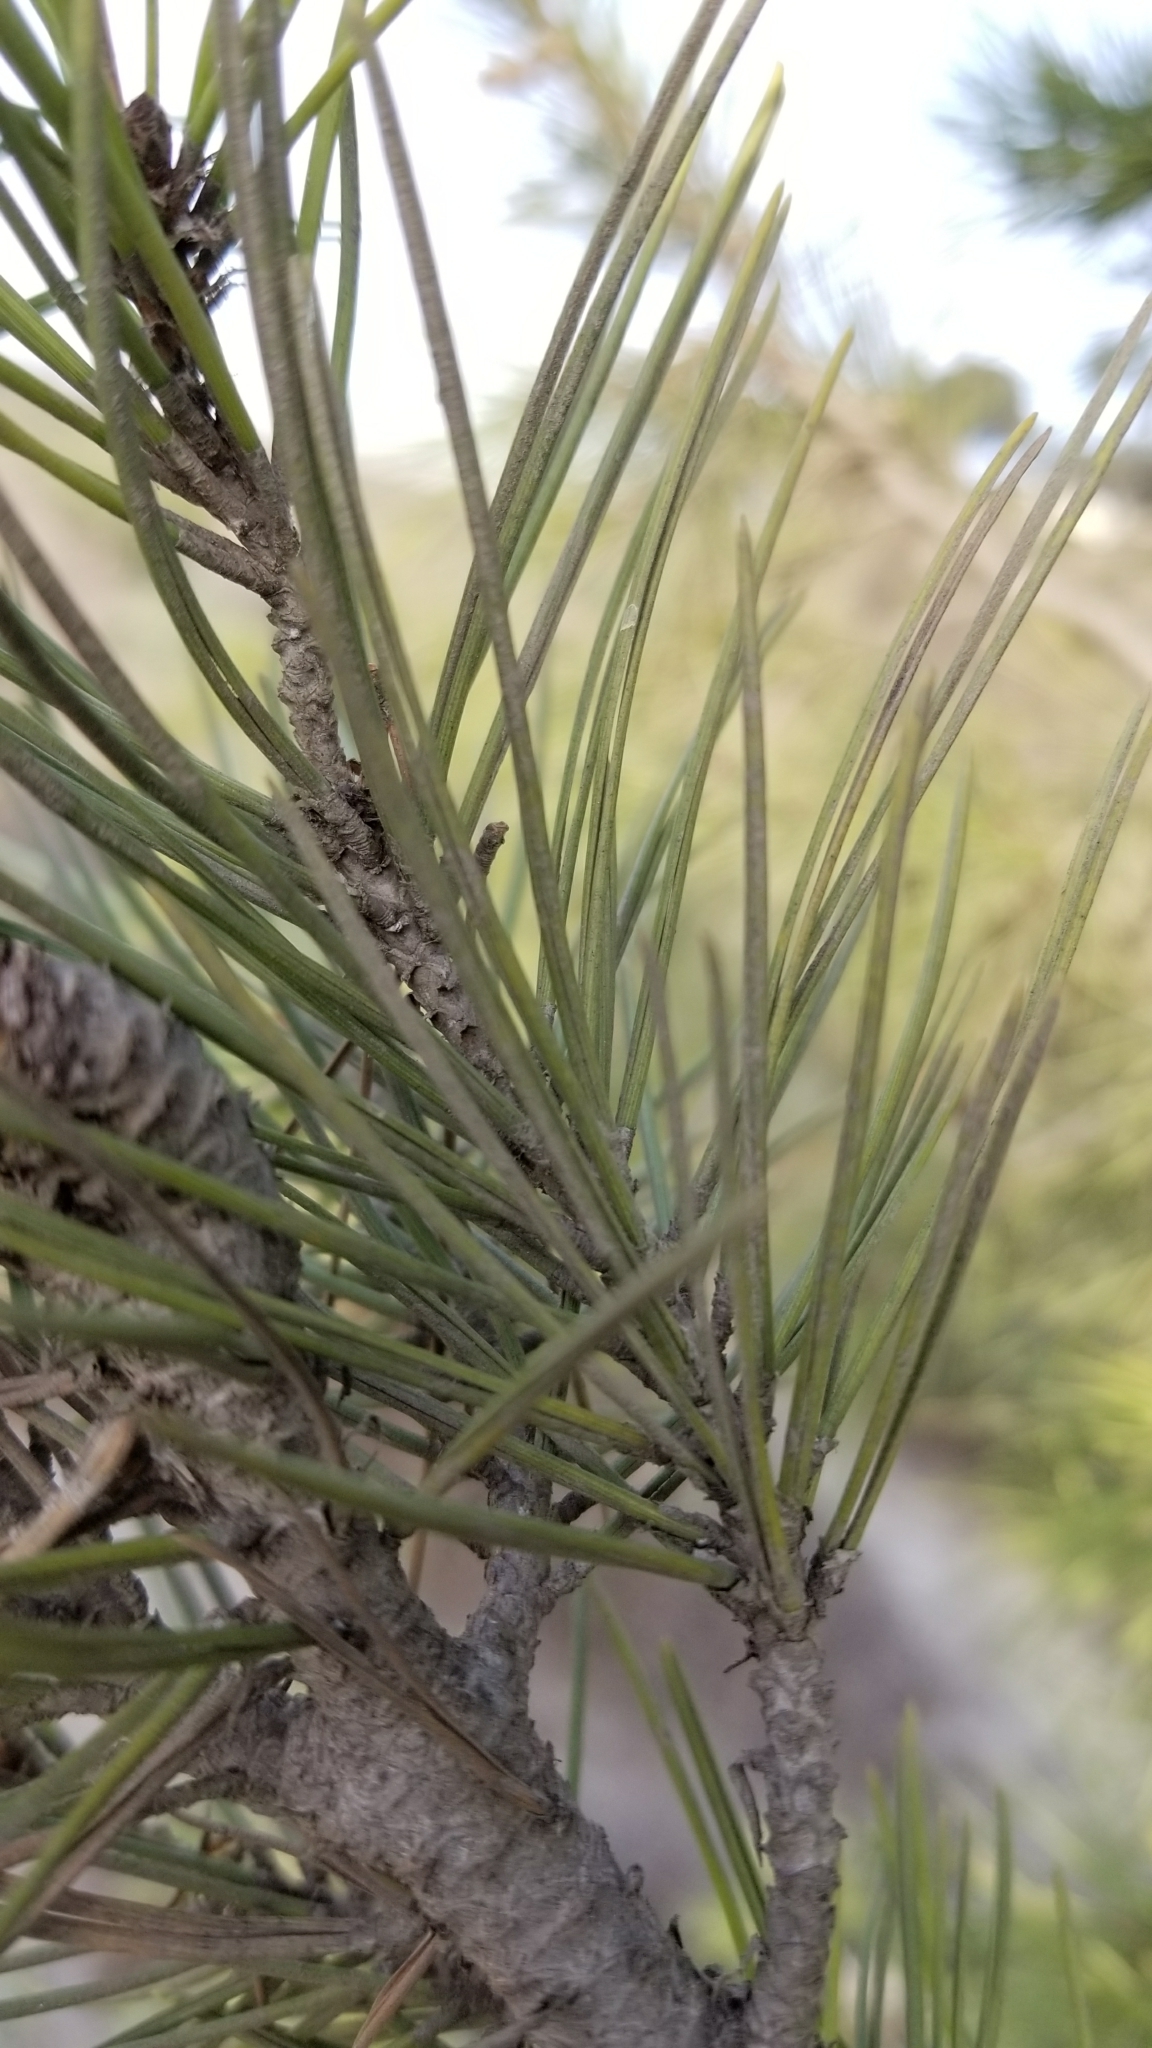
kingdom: Plantae
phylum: Tracheophyta
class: Pinopsida
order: Pinales
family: Pinaceae
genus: Pinus
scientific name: Pinus halepensis
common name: Aleppo pine
